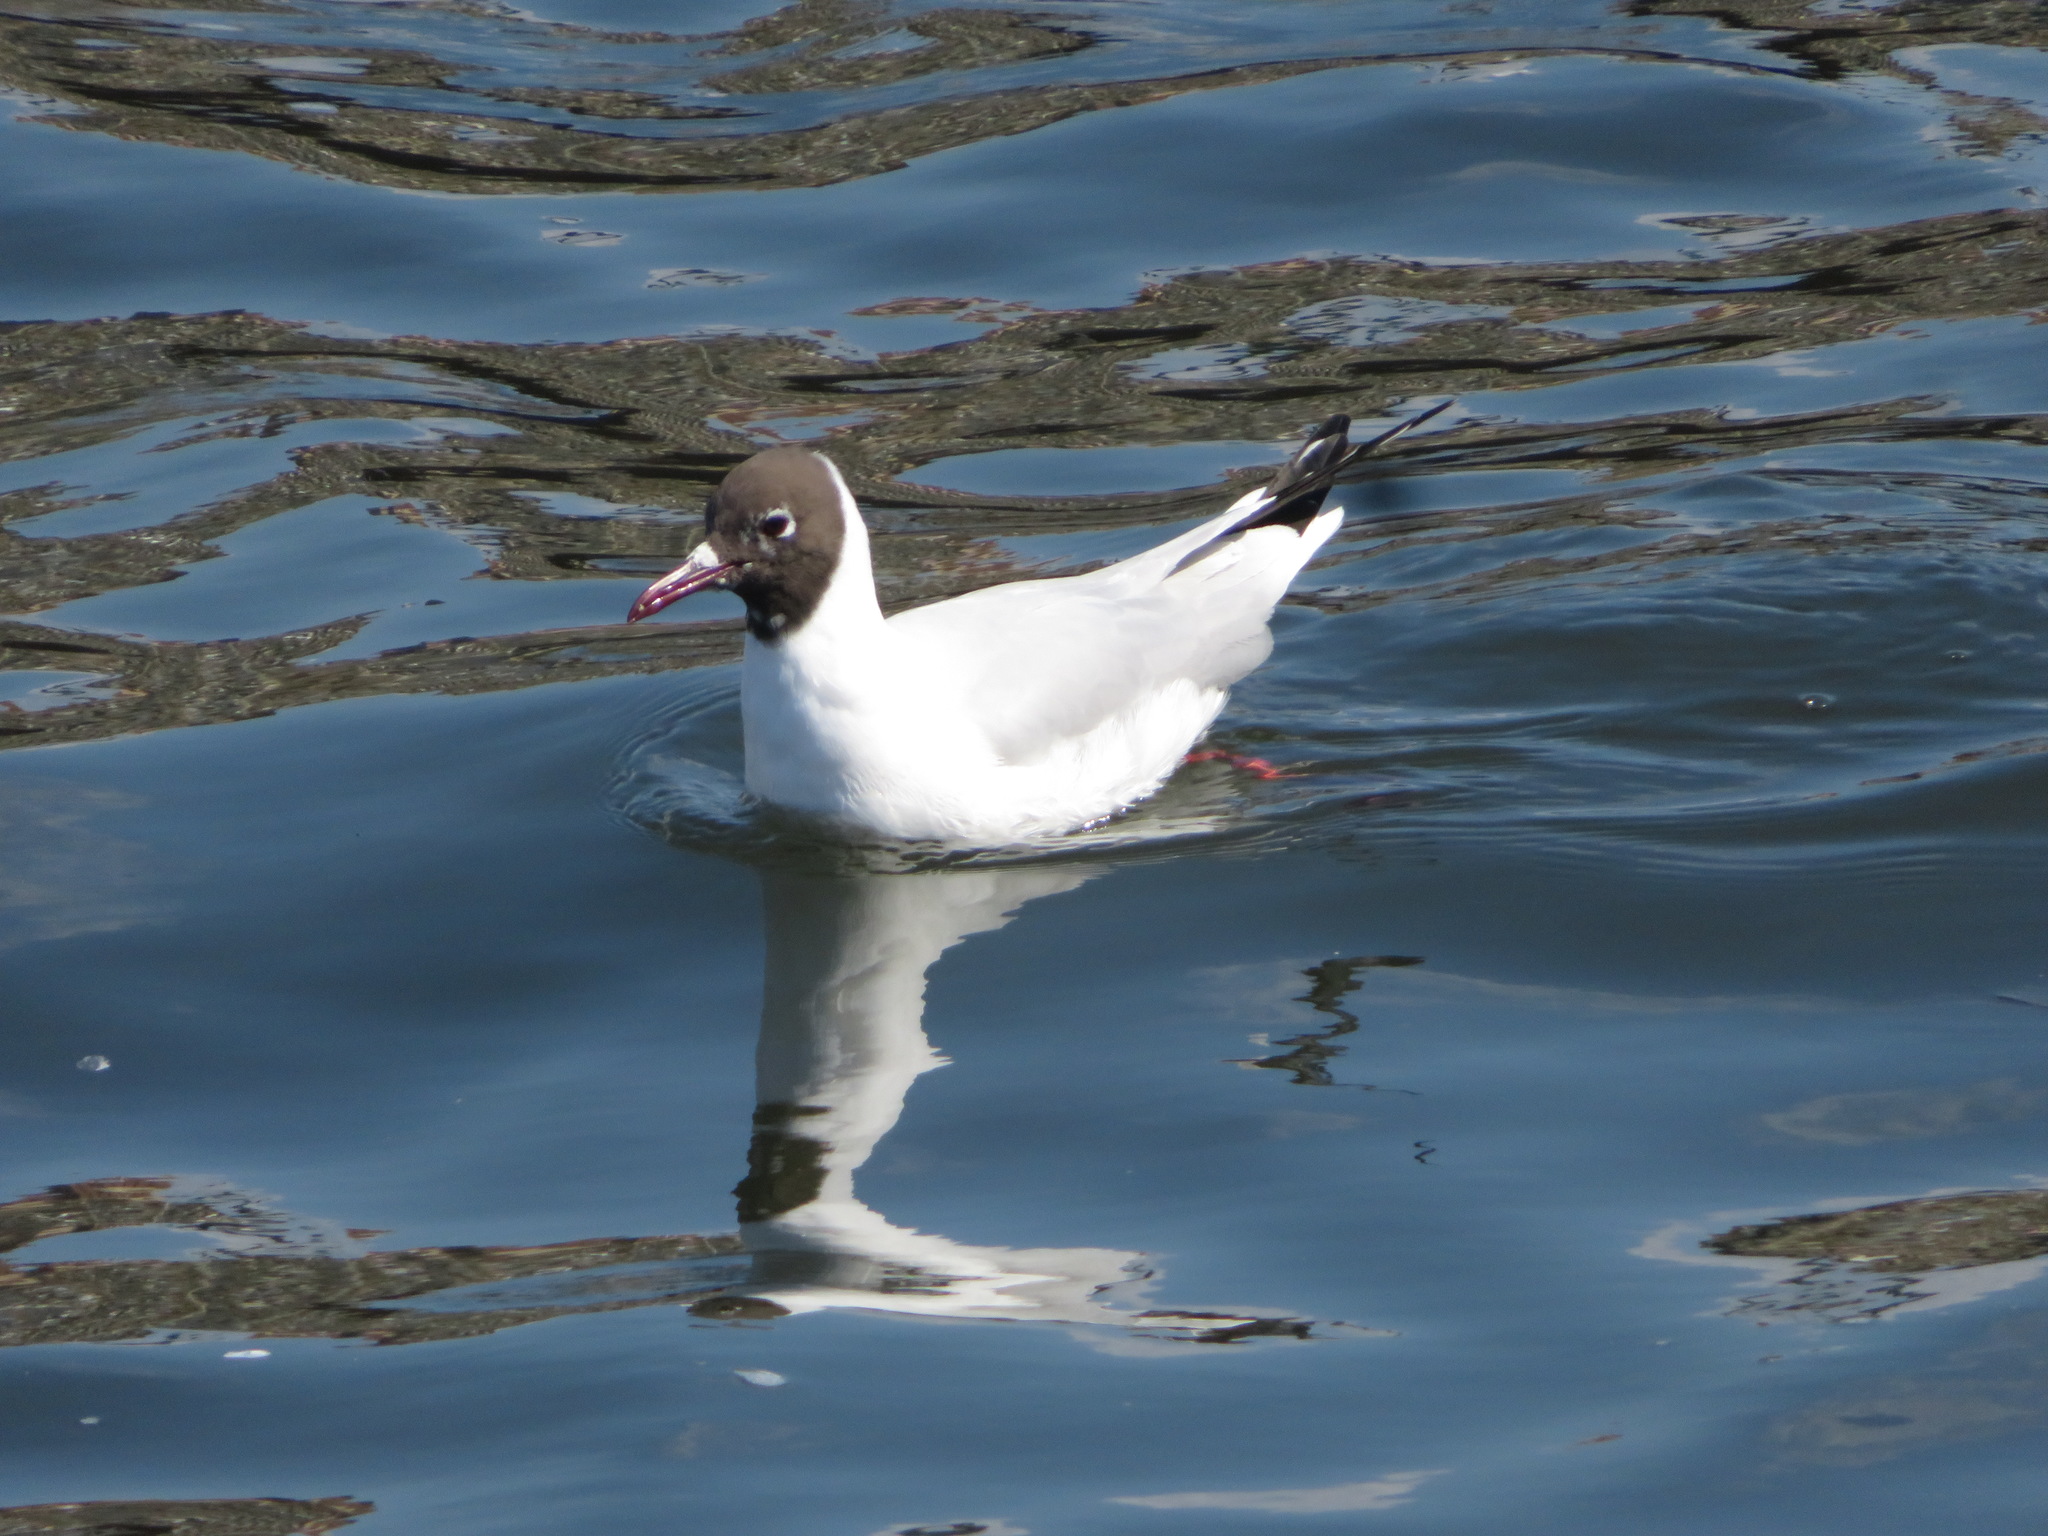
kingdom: Animalia
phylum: Chordata
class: Aves
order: Charadriiformes
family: Laridae
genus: Chroicocephalus
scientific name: Chroicocephalus ridibundus
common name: Black-headed gull
